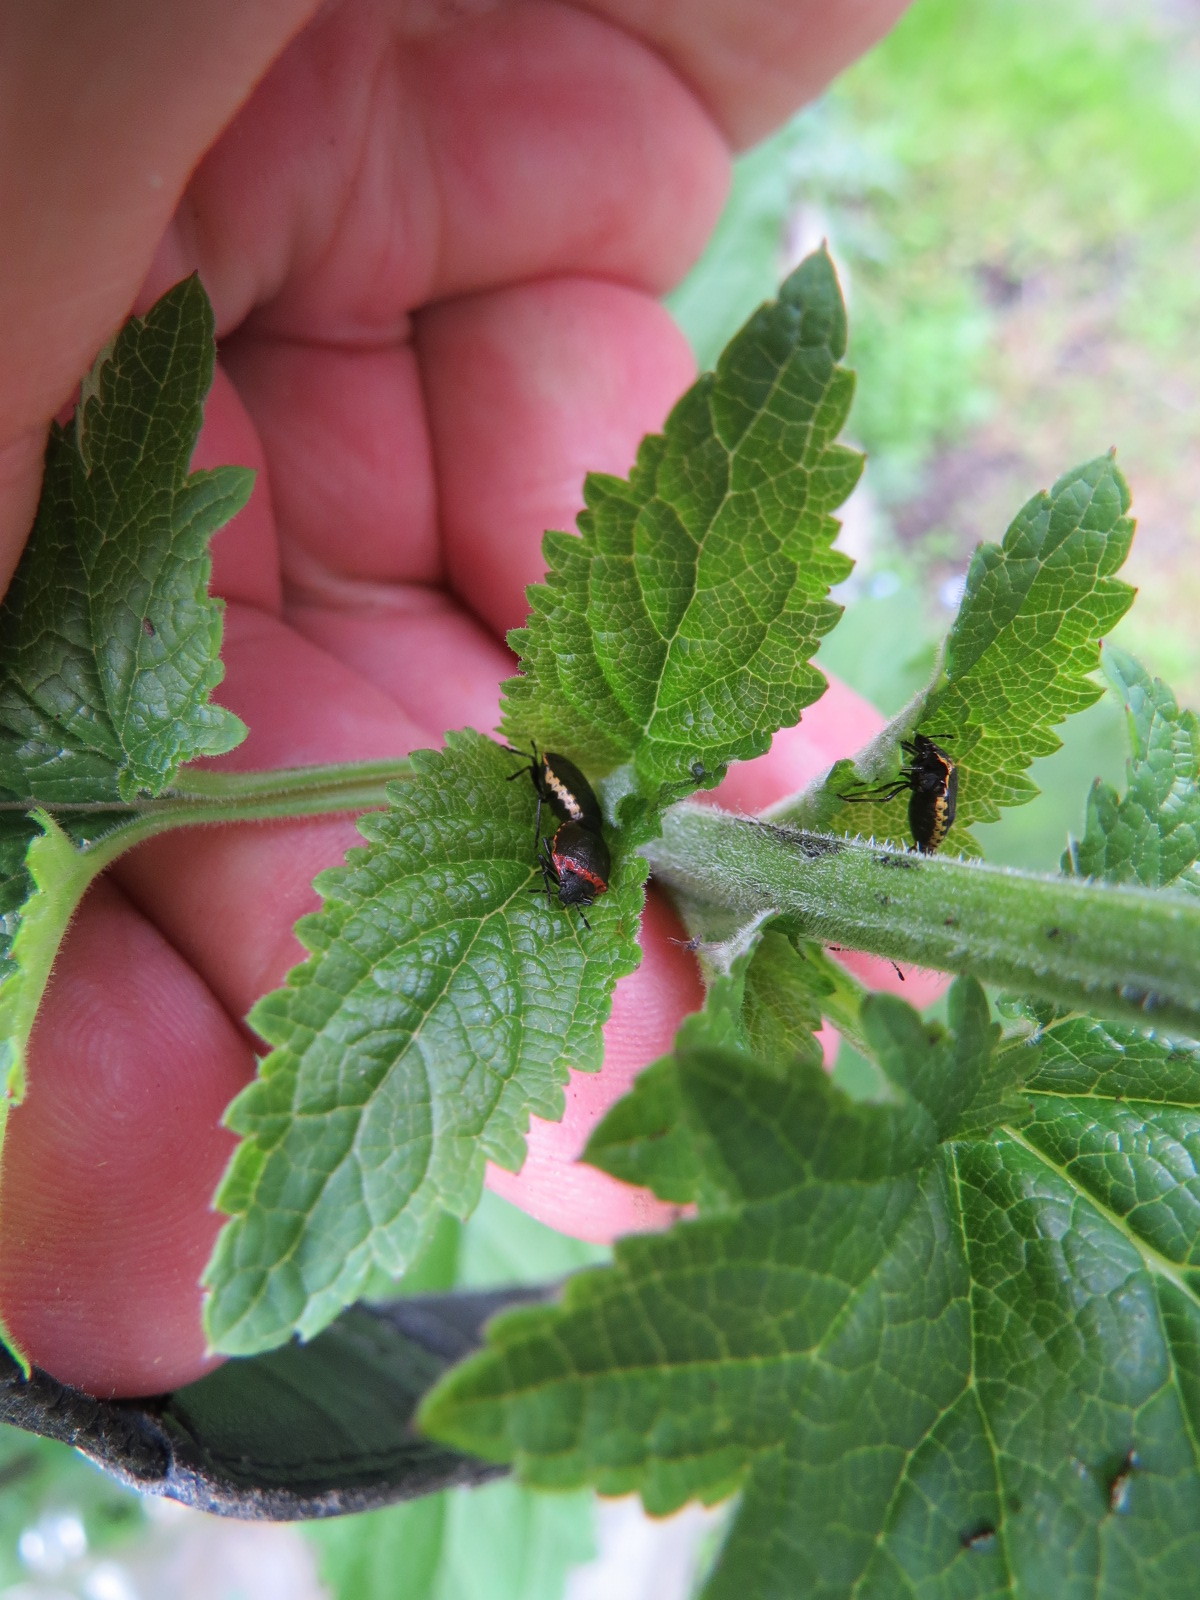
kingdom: Animalia
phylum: Arthropoda
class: Insecta
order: Hemiptera
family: Pentatomidae
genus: Cosmopepla
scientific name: Cosmopepla uhleri
